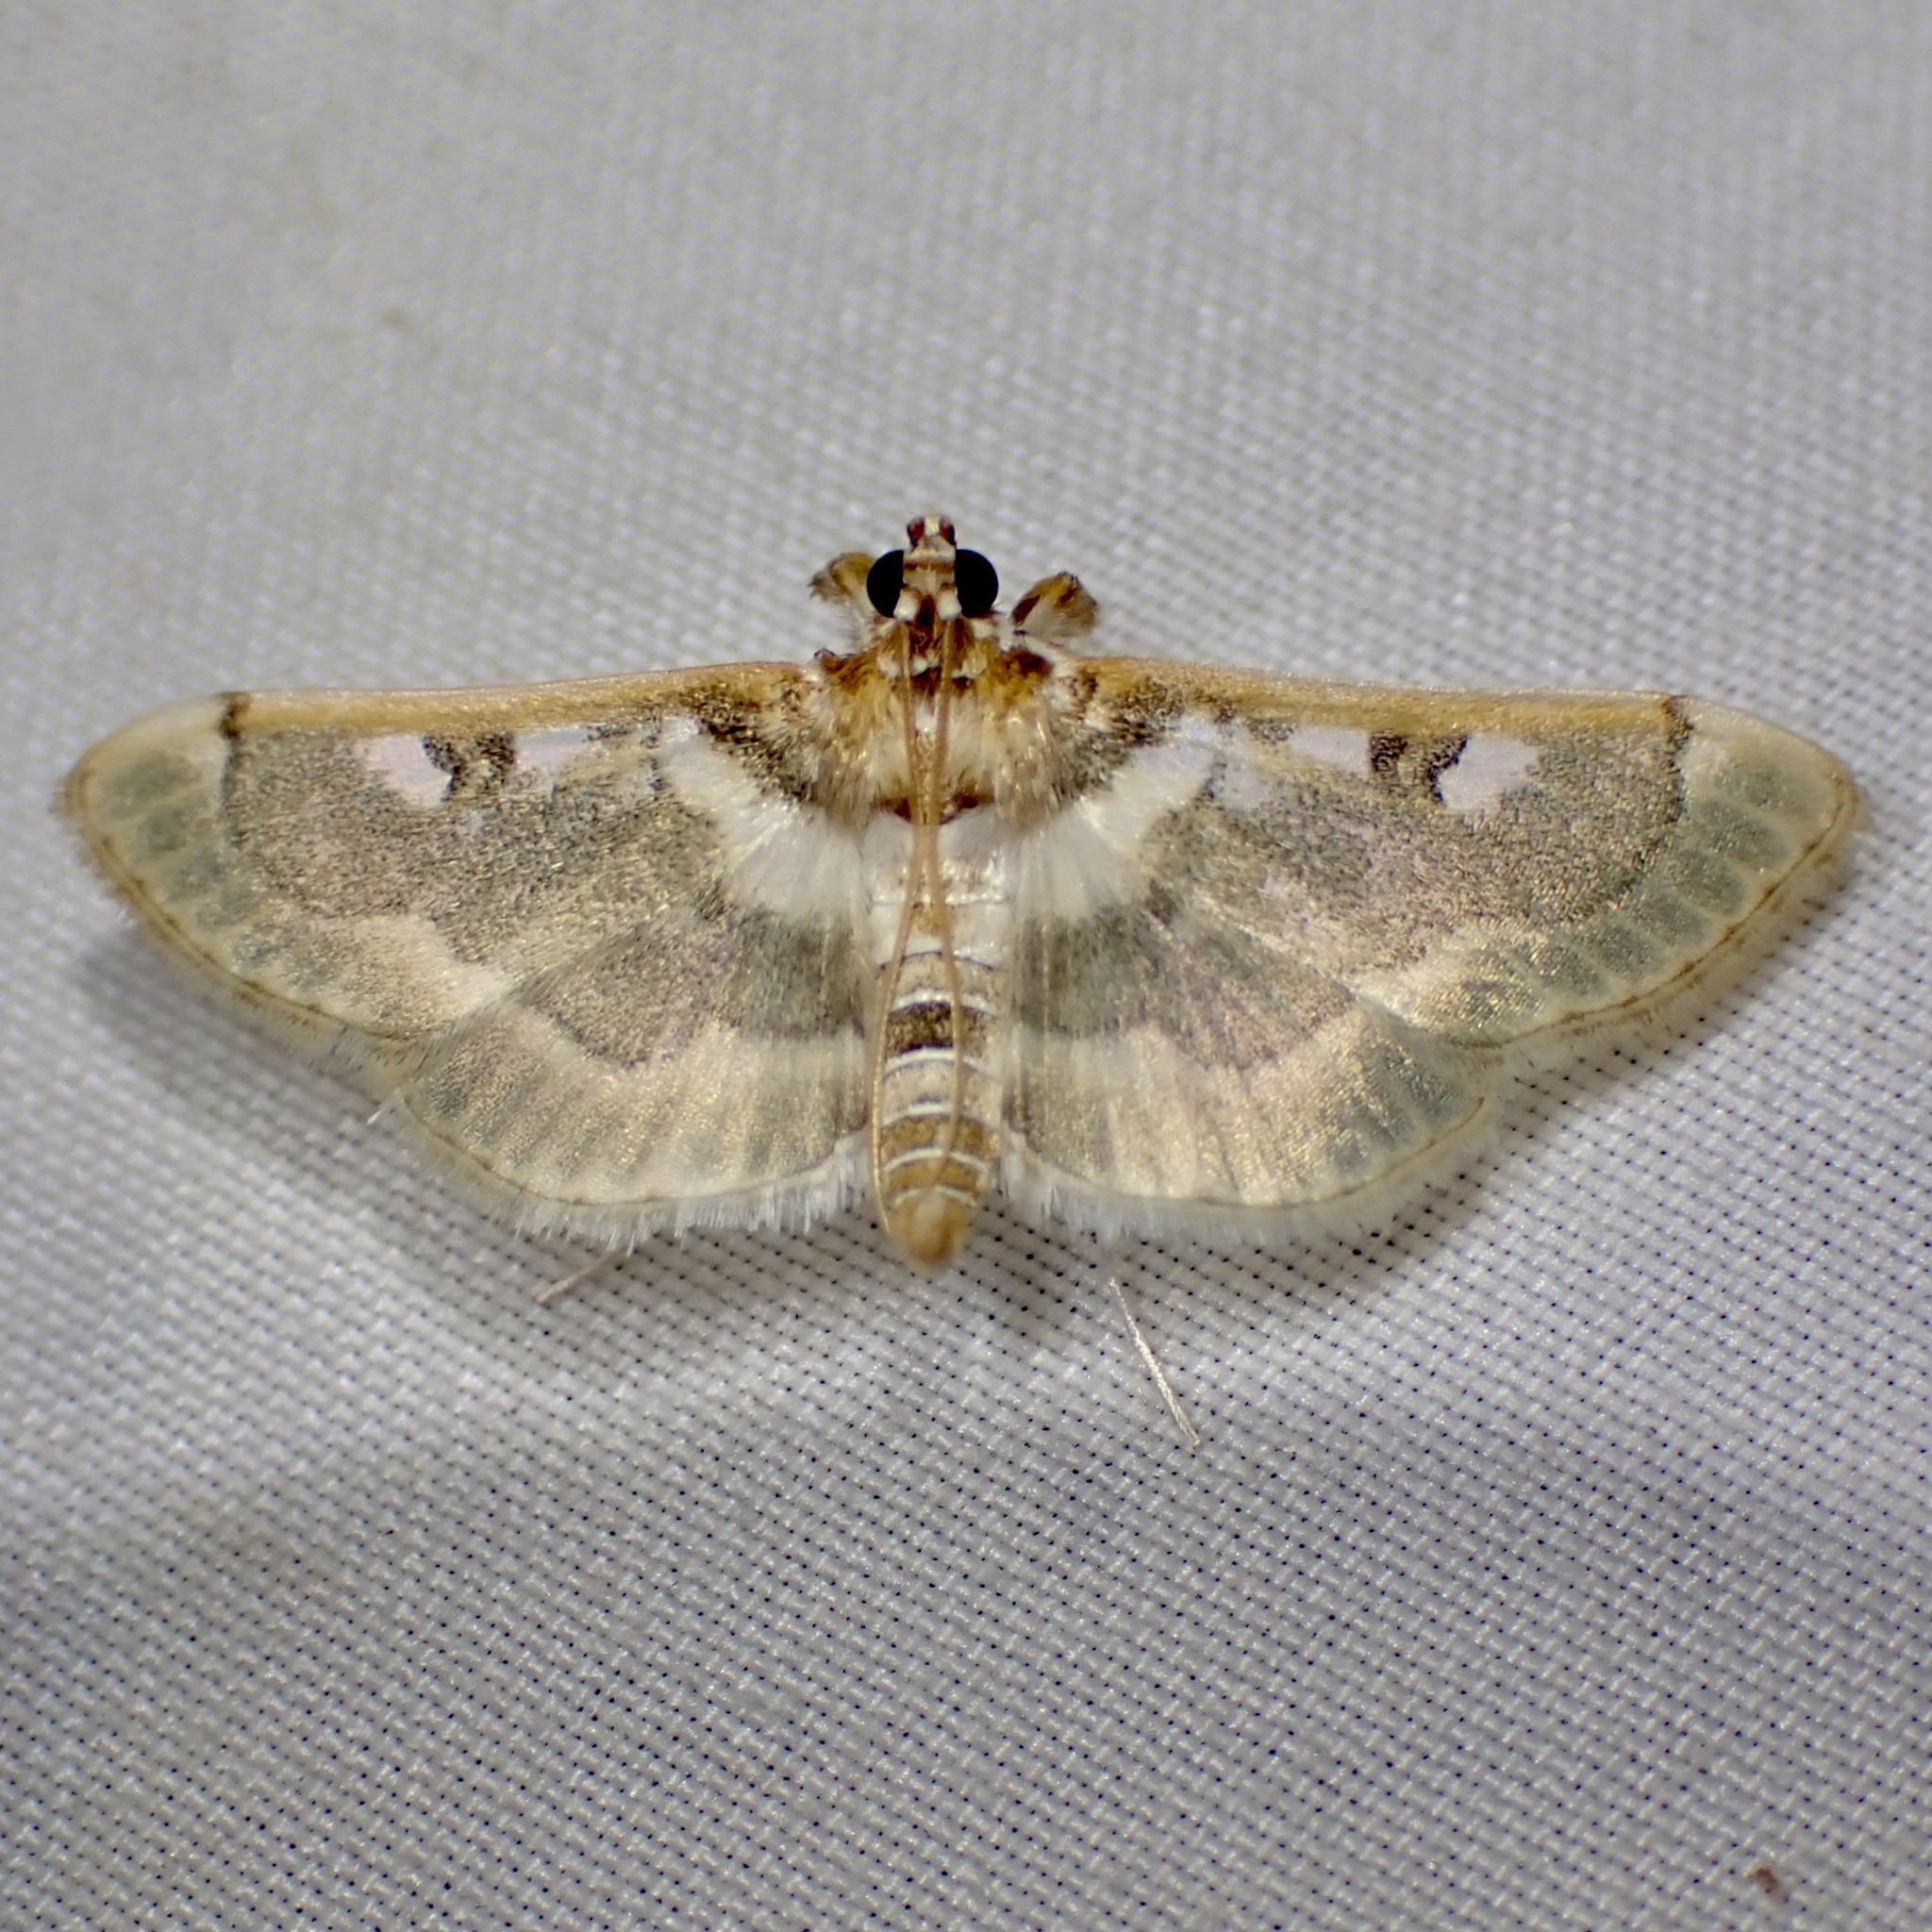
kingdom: Animalia
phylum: Arthropoda
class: Insecta
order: Lepidoptera
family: Crambidae
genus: Apilocrocis
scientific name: Apilocrocis pimalis
